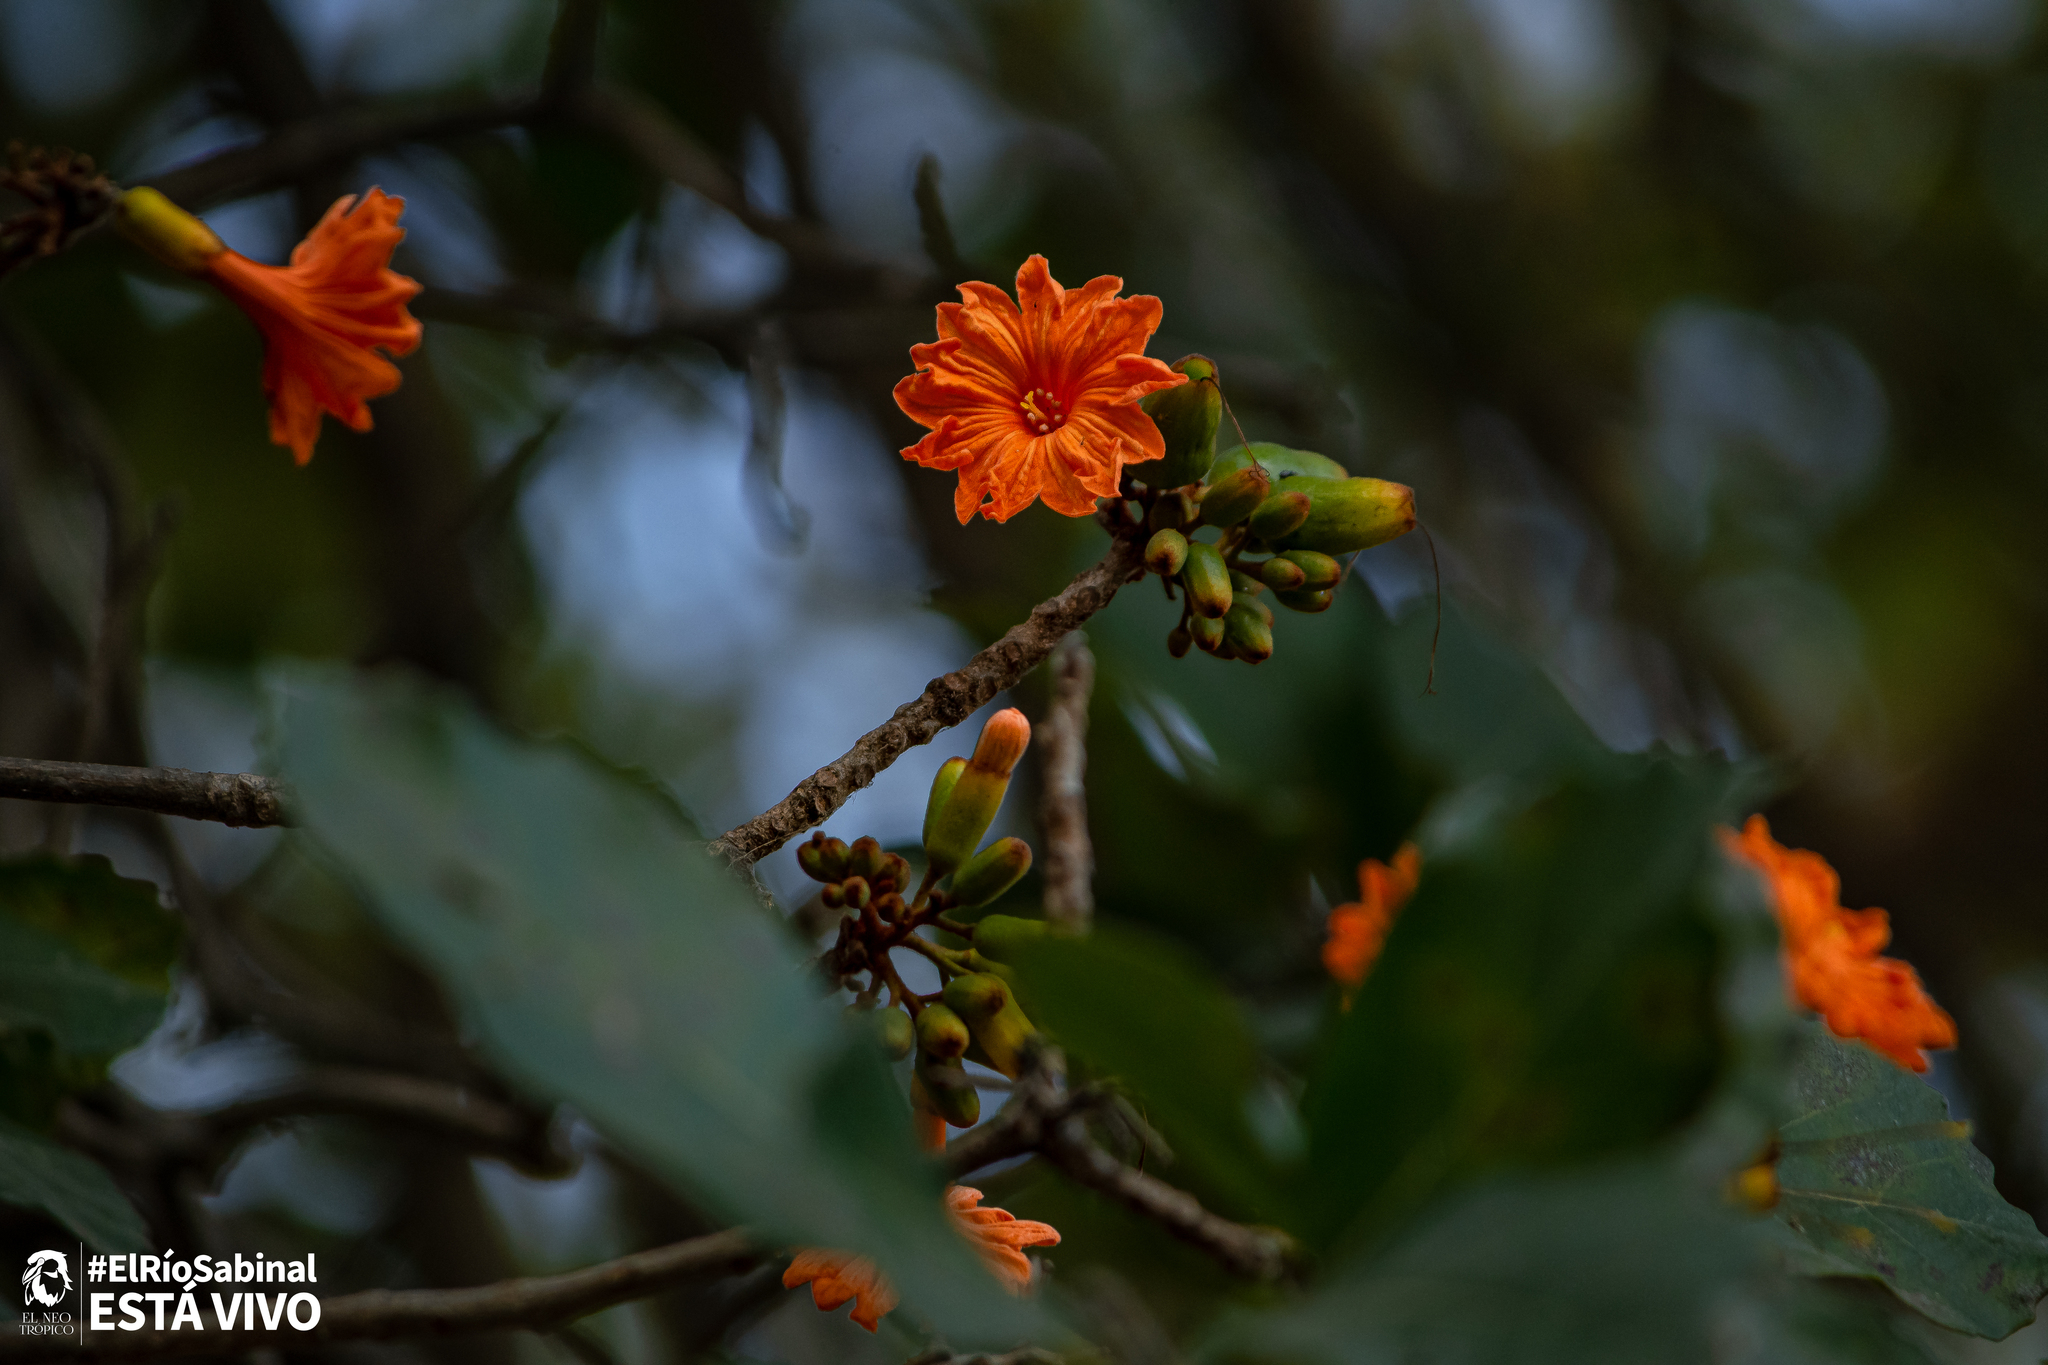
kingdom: Plantae
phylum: Tracheophyta
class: Magnoliopsida
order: Boraginales
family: Cordiaceae
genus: Cordia
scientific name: Cordia dodecandra
